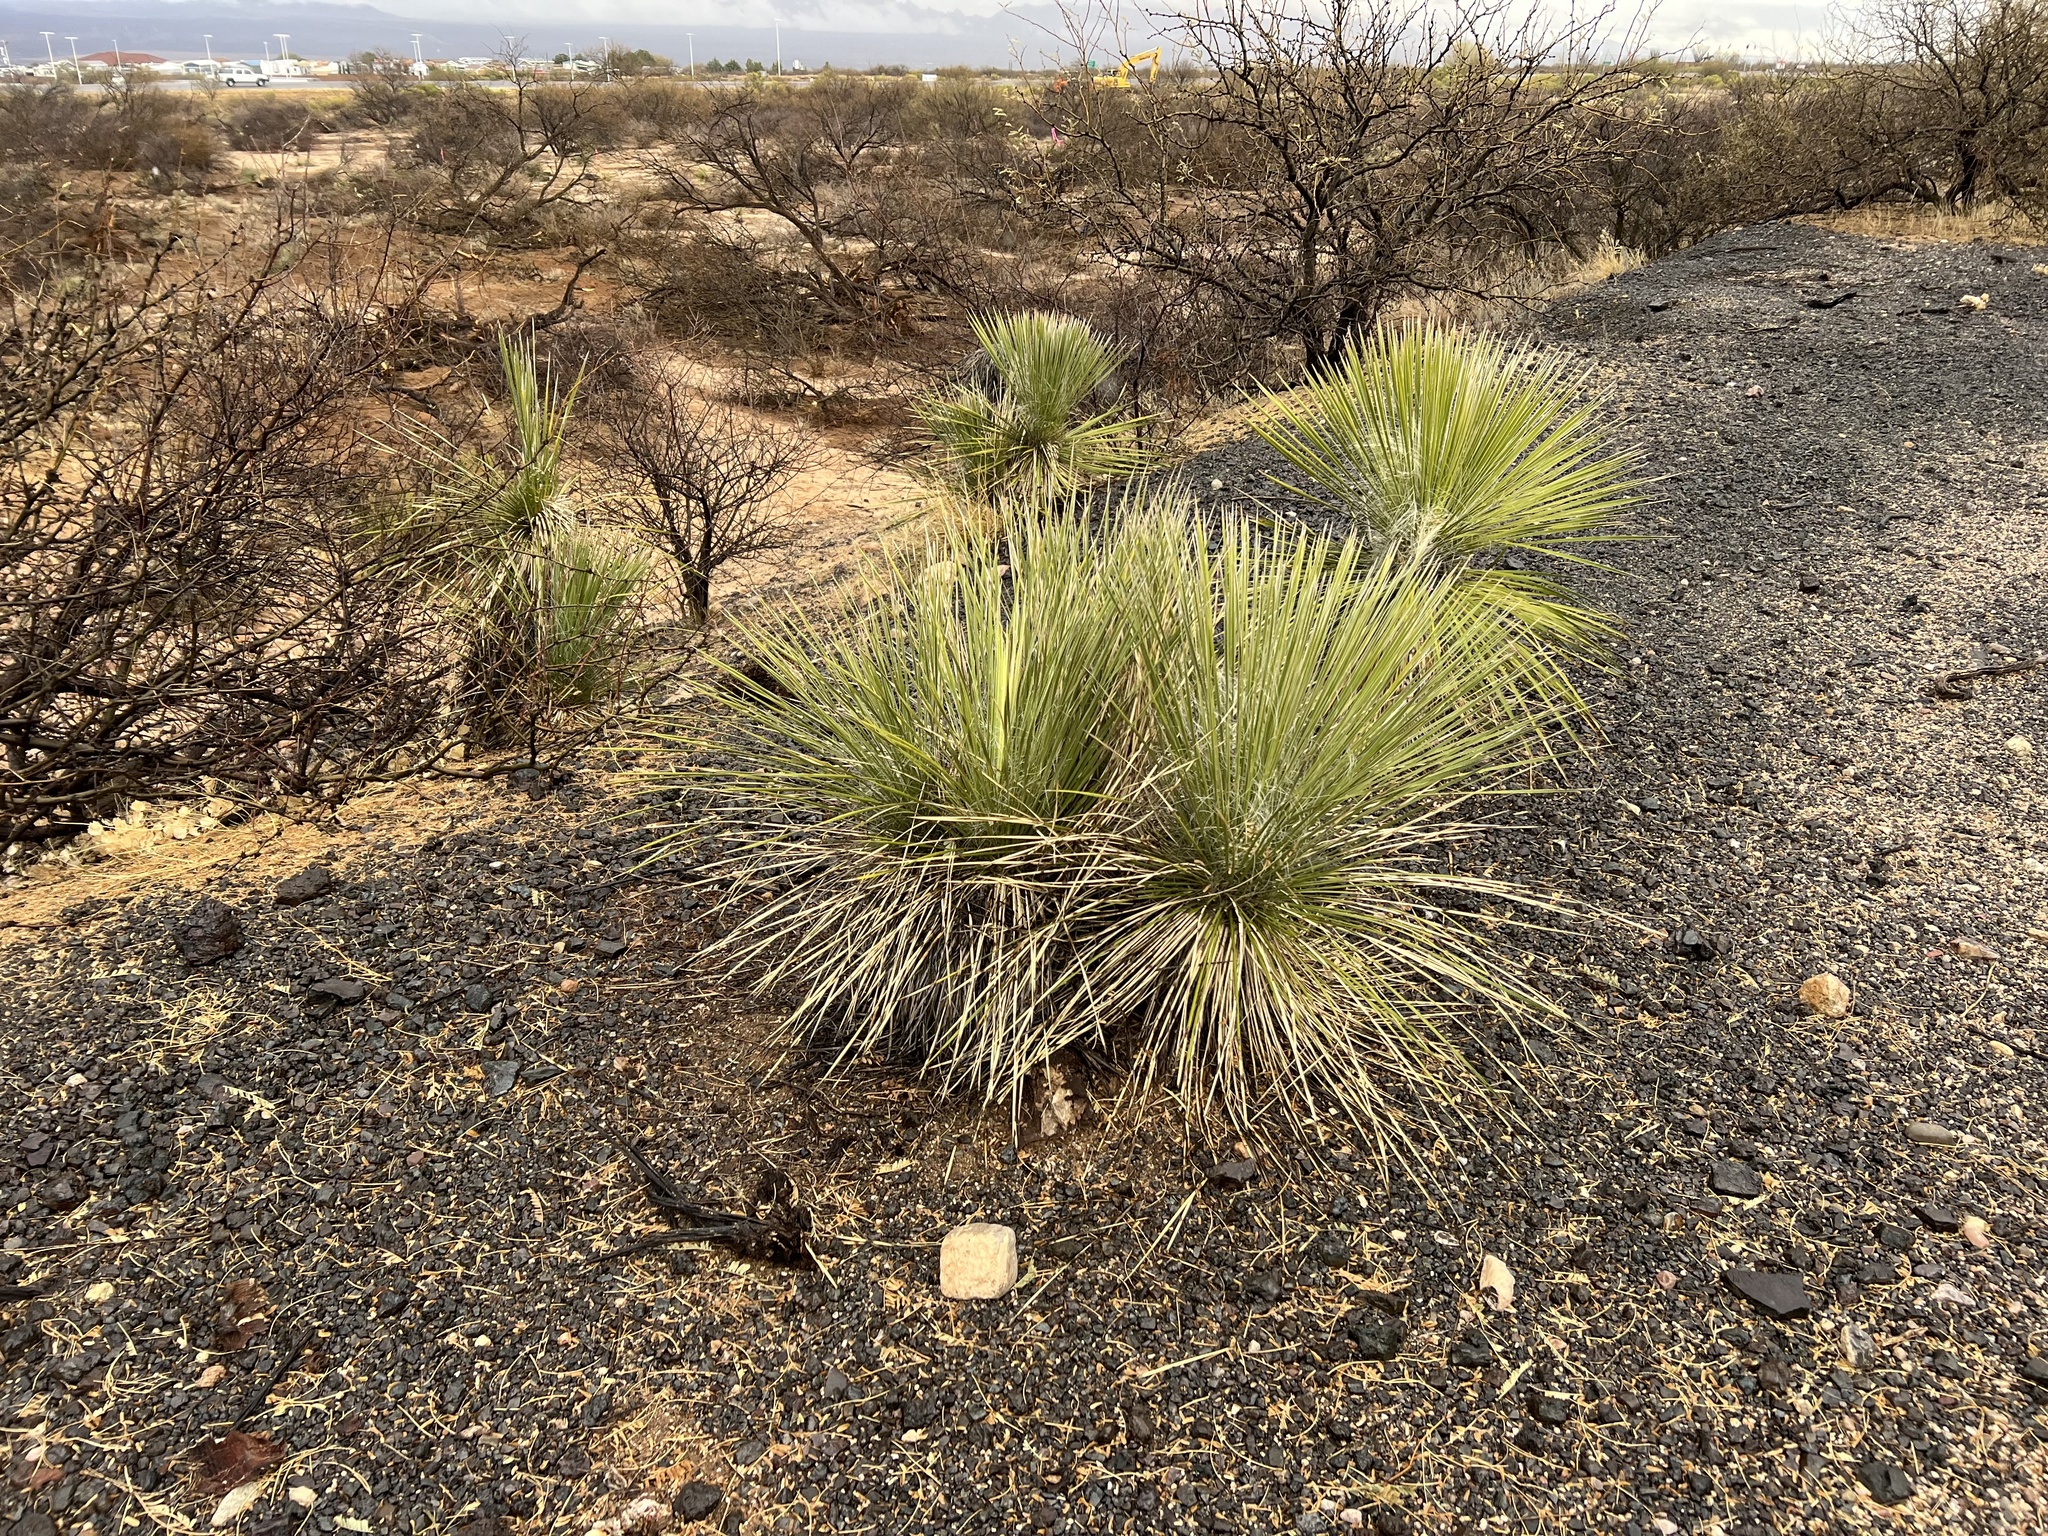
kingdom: Plantae
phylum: Tracheophyta
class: Liliopsida
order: Asparagales
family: Asparagaceae
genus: Yucca
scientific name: Yucca elata
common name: Palmella
